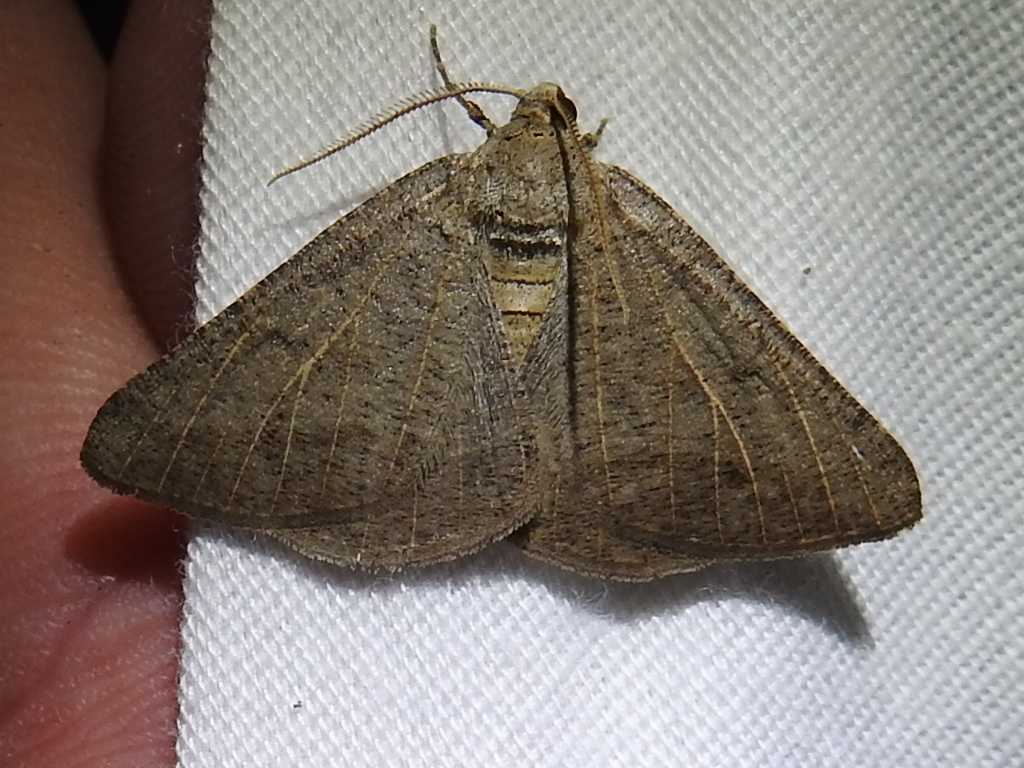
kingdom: Animalia
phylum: Arthropoda
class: Insecta
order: Lepidoptera
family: Geometridae
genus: Isturgia
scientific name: Isturgia dislocaria
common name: Pale-viened enconista
